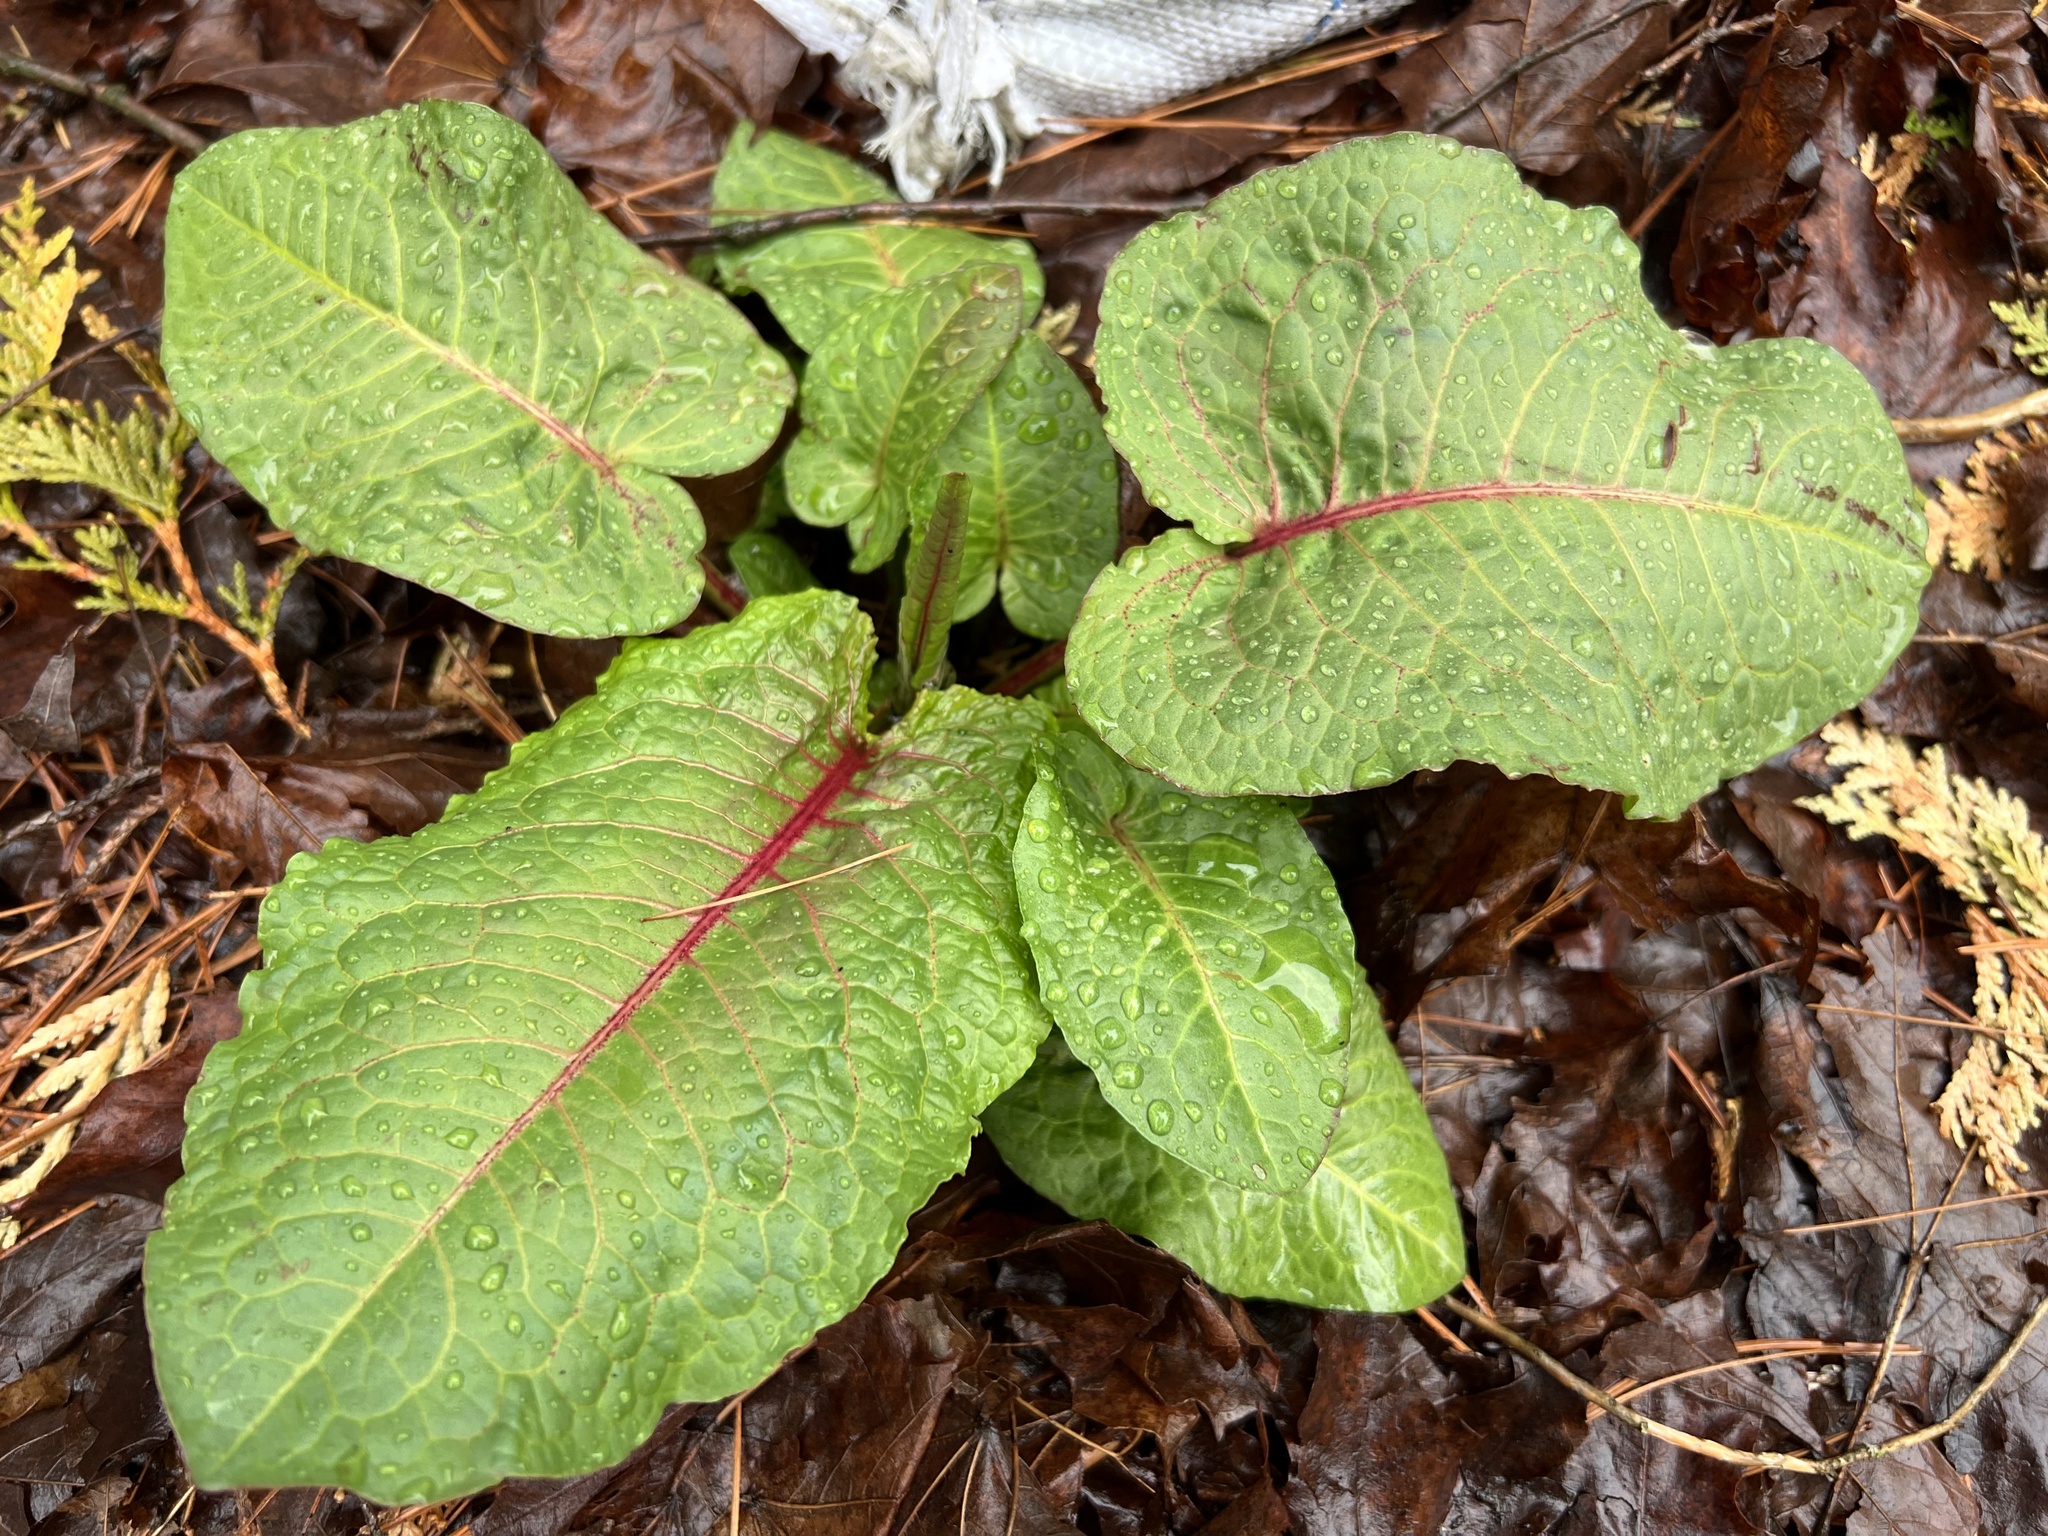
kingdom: Plantae
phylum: Tracheophyta
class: Magnoliopsida
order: Caryophyllales
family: Polygonaceae
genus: Rumex
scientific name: Rumex obtusifolius
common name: Bitter dock
